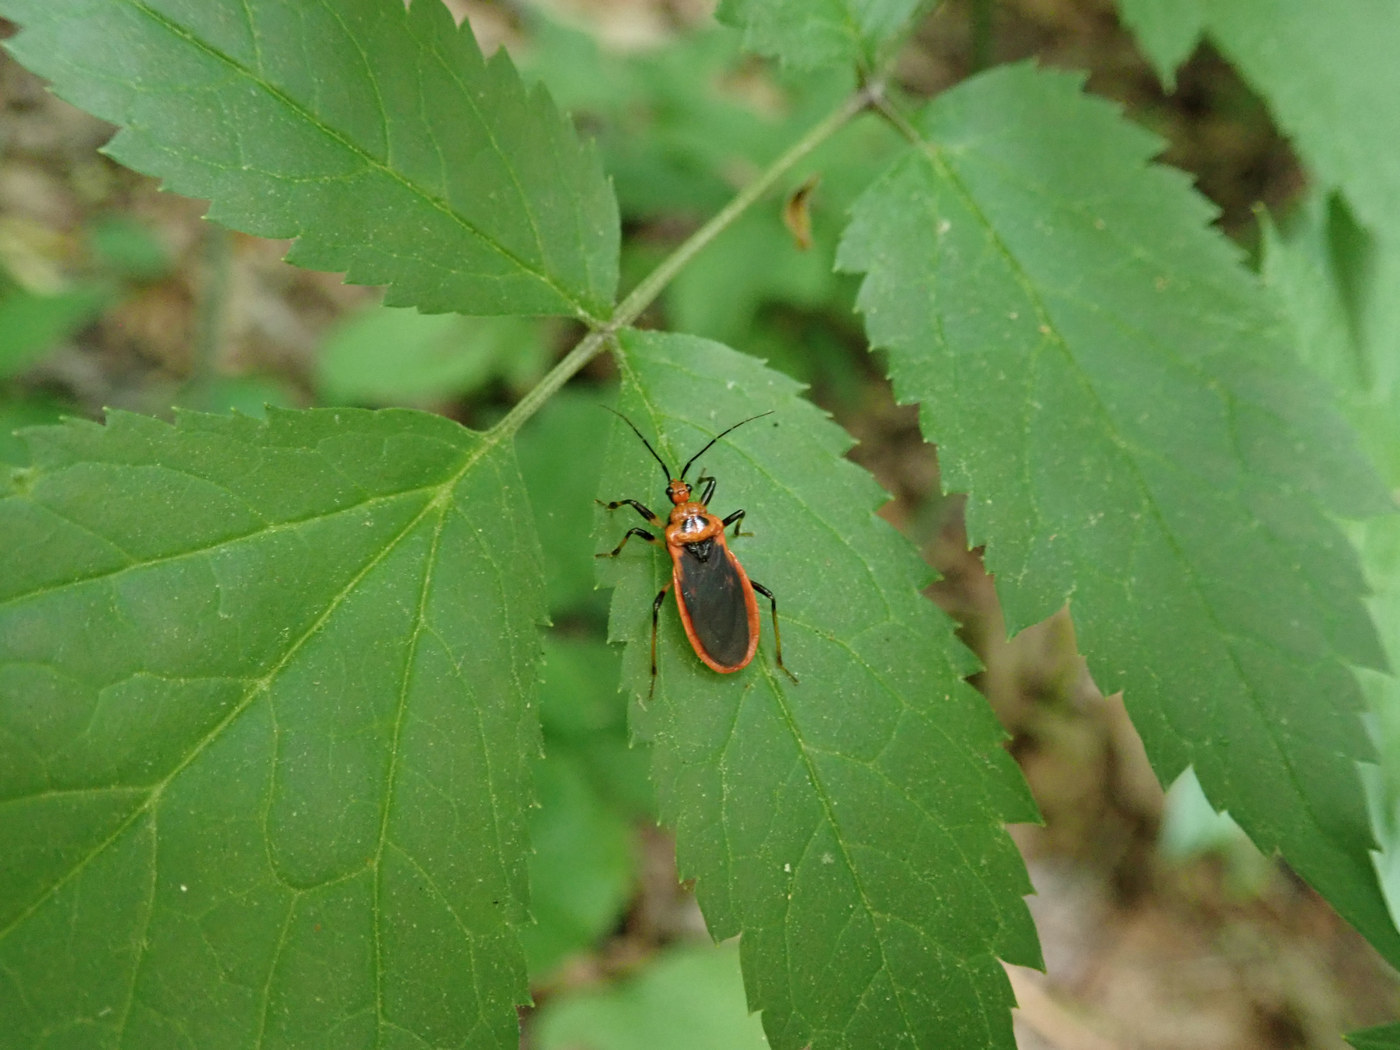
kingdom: Animalia
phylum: Arthropoda
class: Insecta
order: Hemiptera
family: Reduviidae
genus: Rhiginia
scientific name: Rhiginia cruciata
